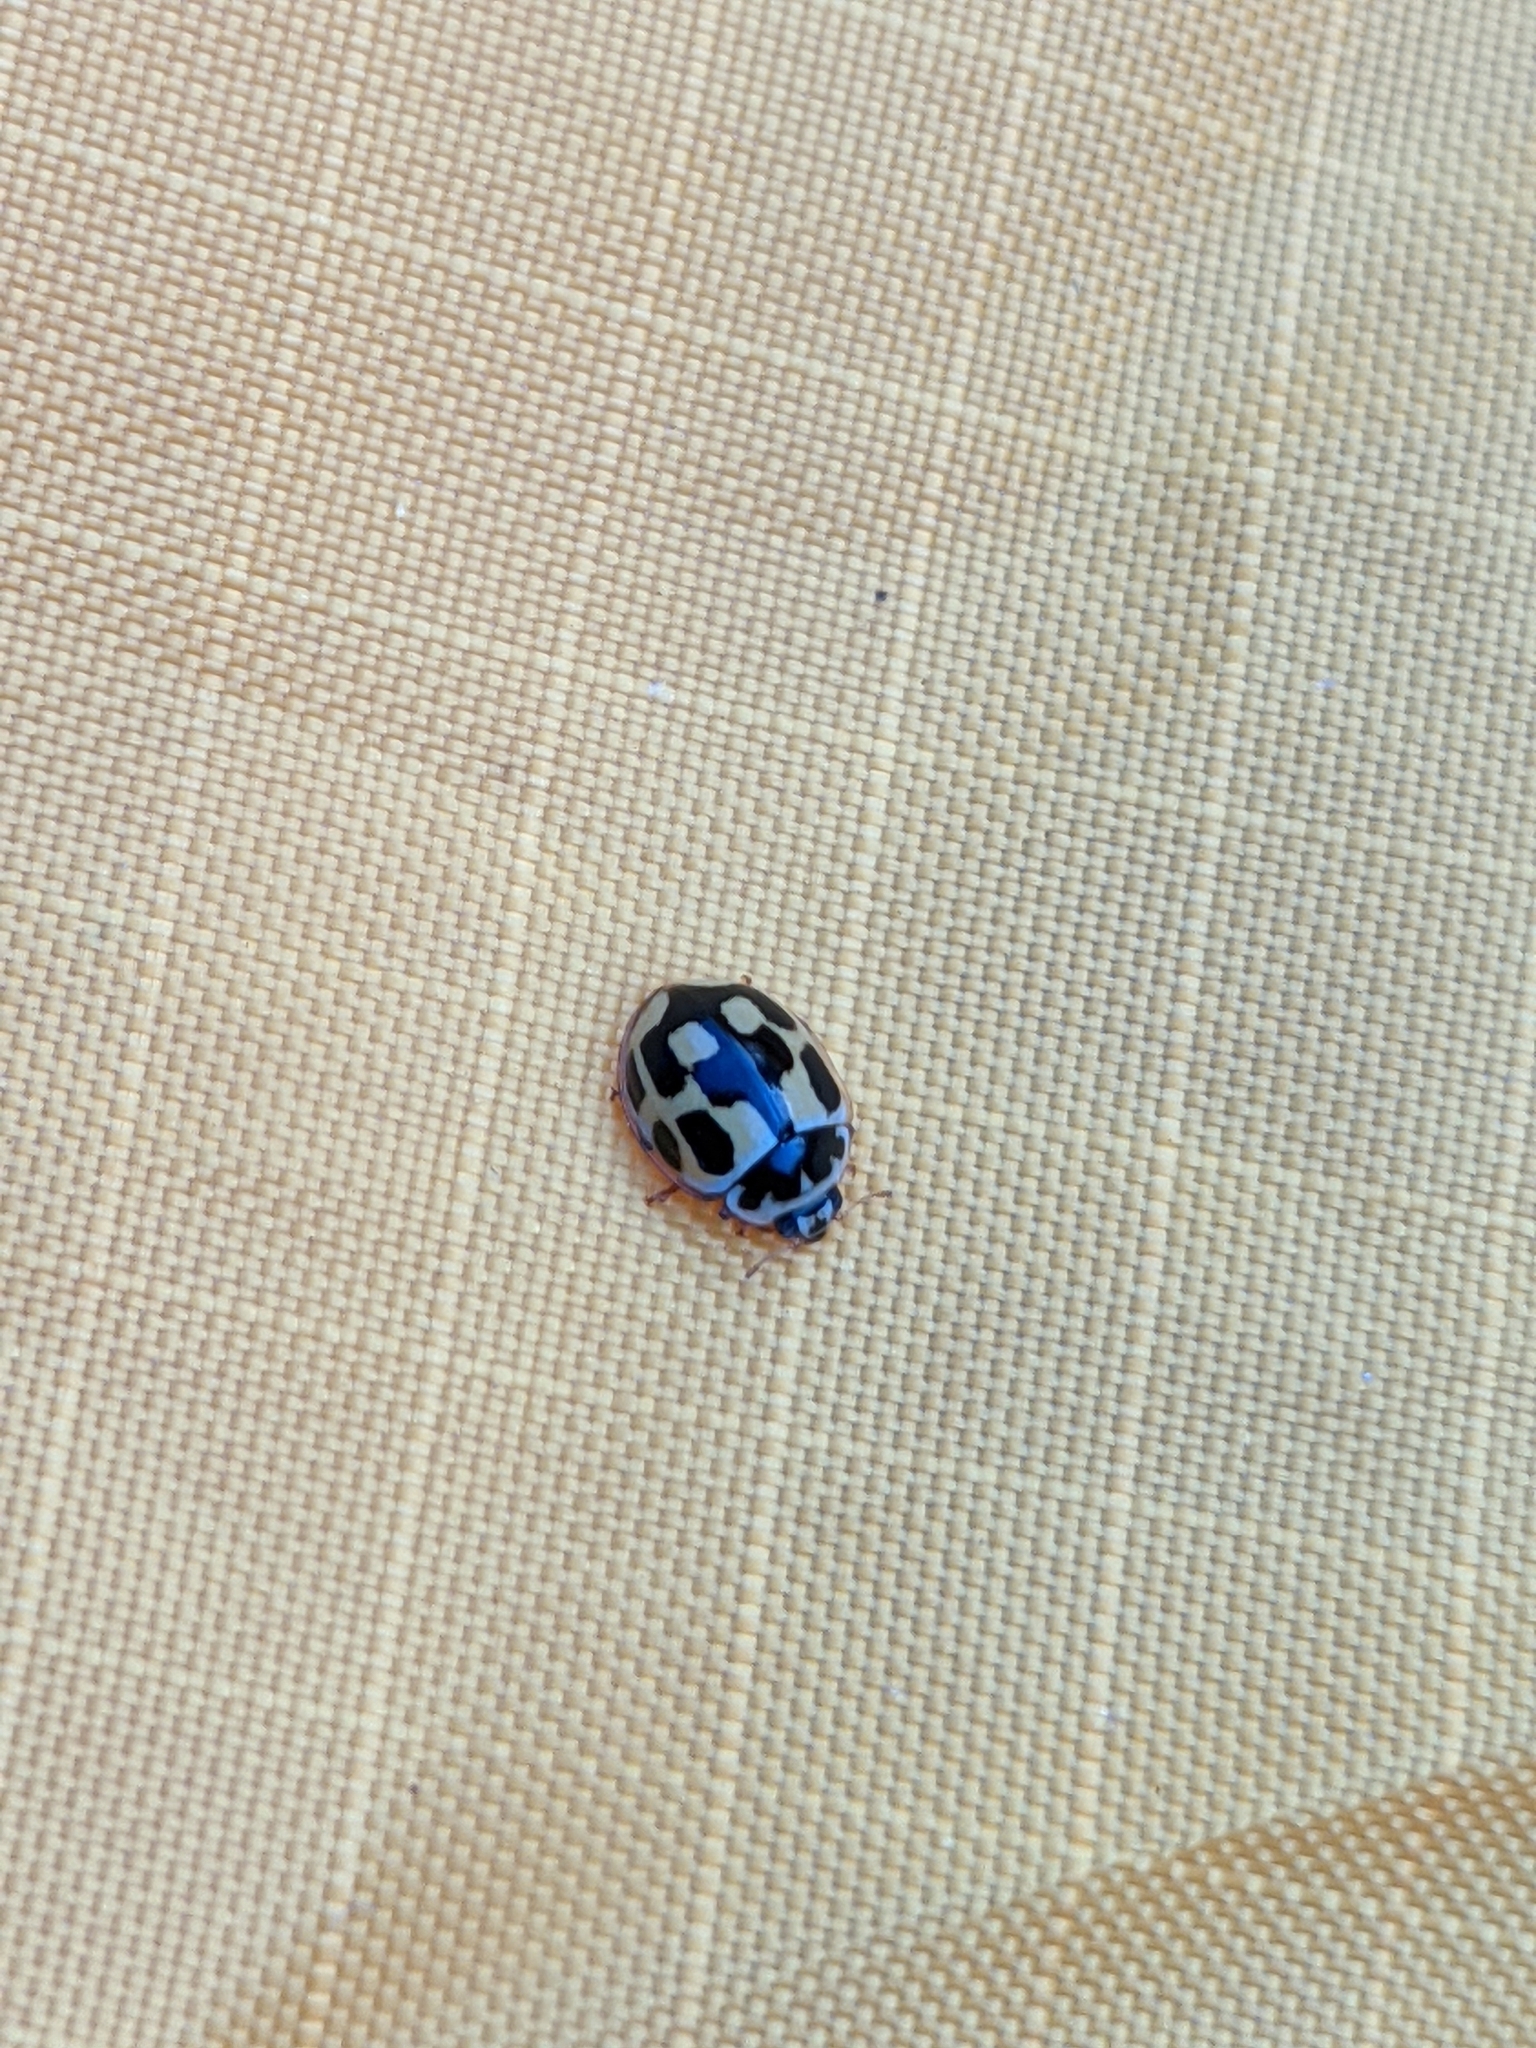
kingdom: Animalia
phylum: Arthropoda
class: Insecta
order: Coleoptera
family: Coccinellidae
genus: Propylaea
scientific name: Propylaea quatuordecimpunctata
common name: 14-spotted ladybird beetle
